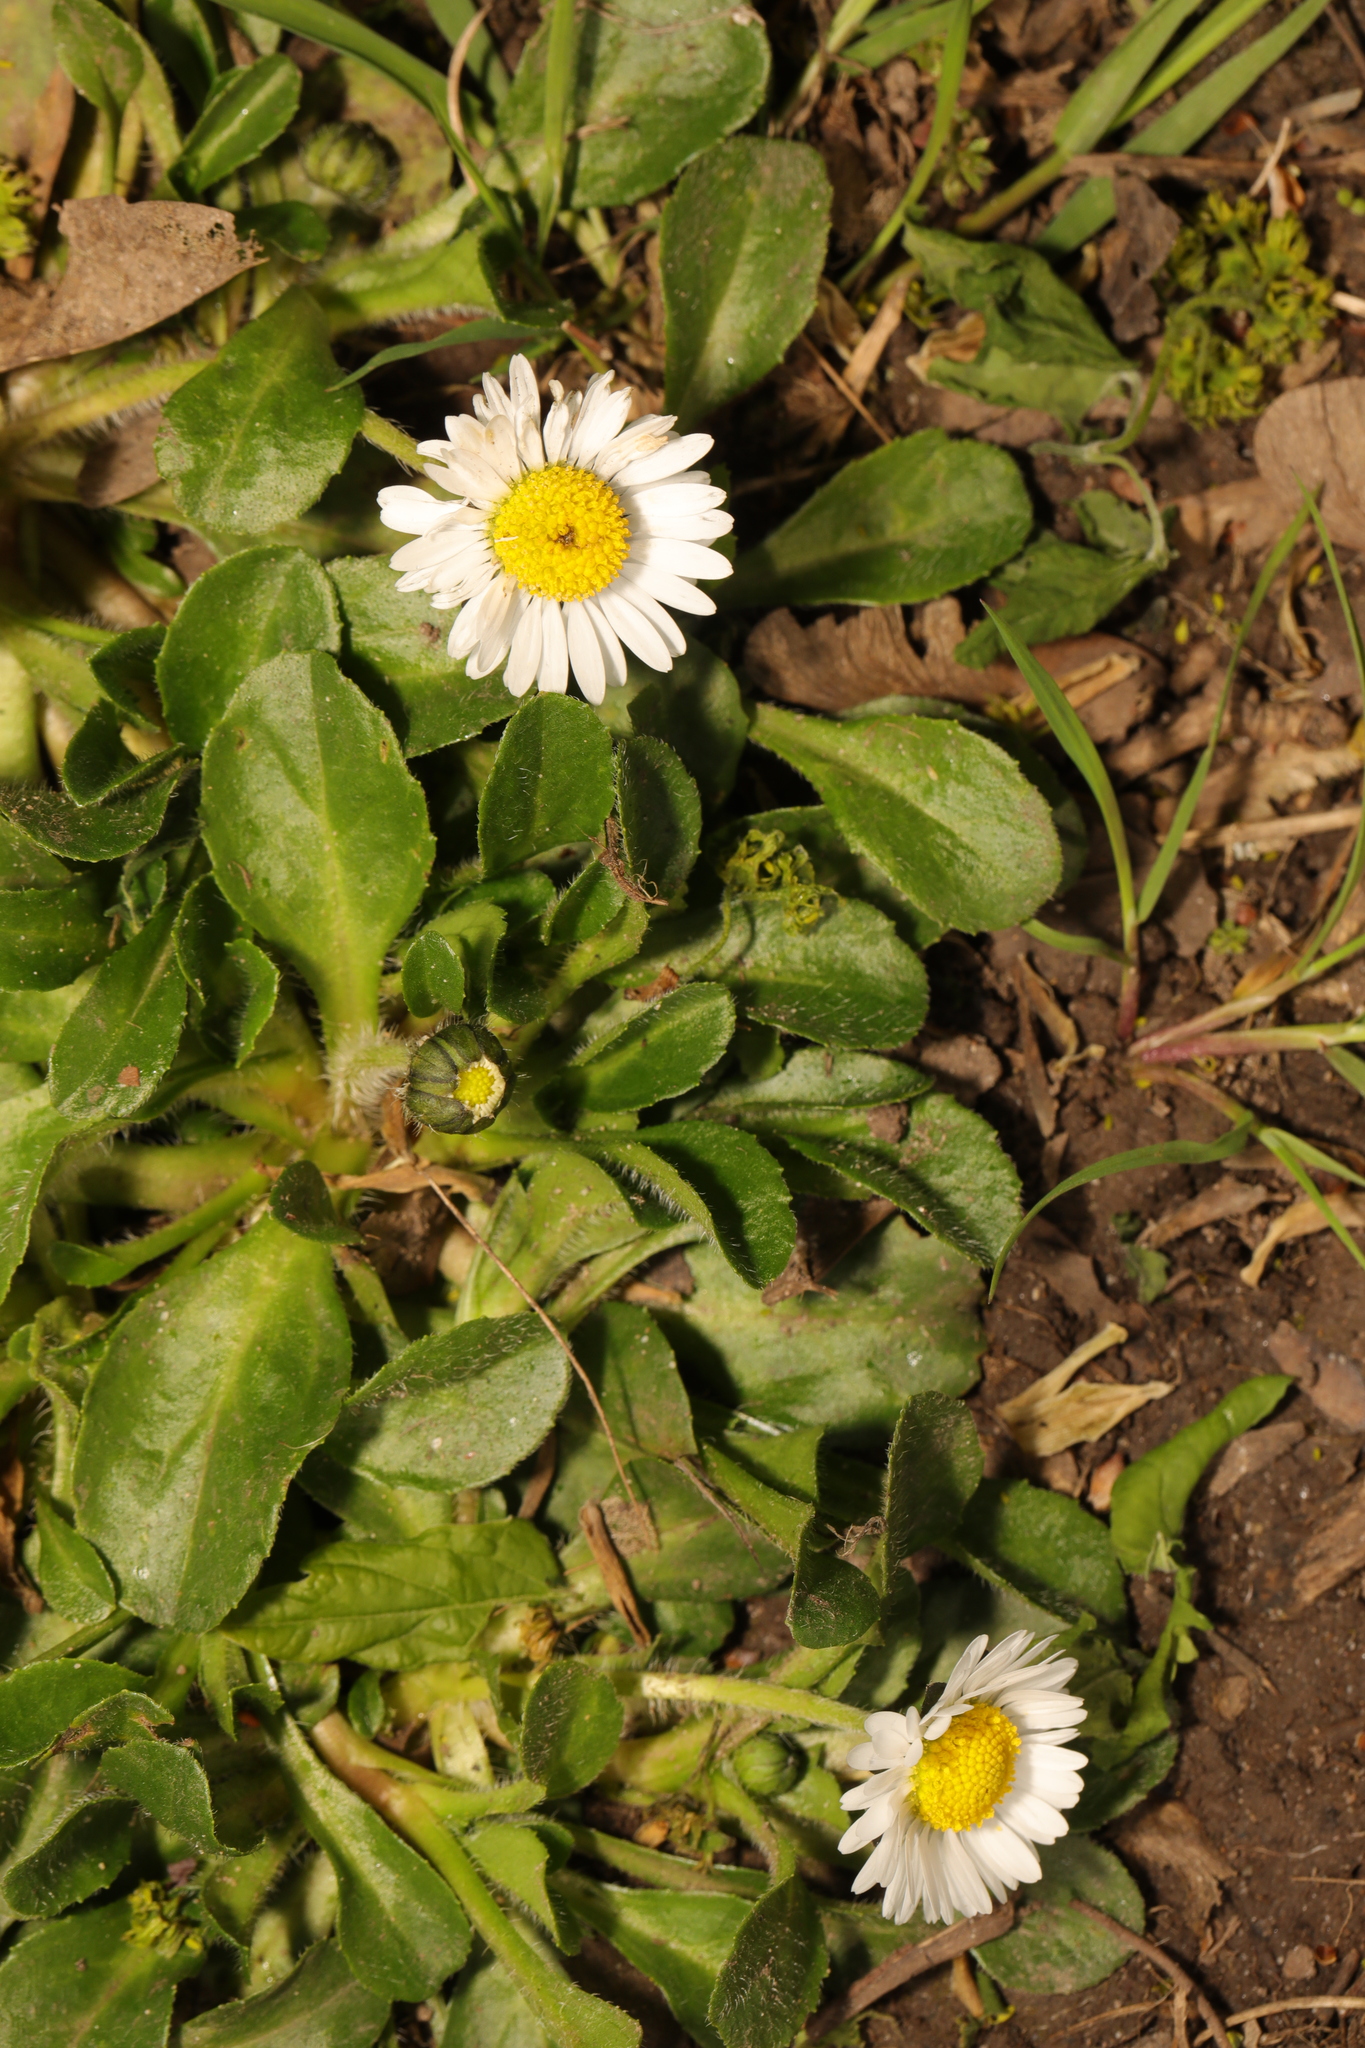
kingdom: Plantae
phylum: Tracheophyta
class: Magnoliopsida
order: Asterales
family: Asteraceae
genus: Bellis
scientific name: Bellis perennis
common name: Lawndaisy
